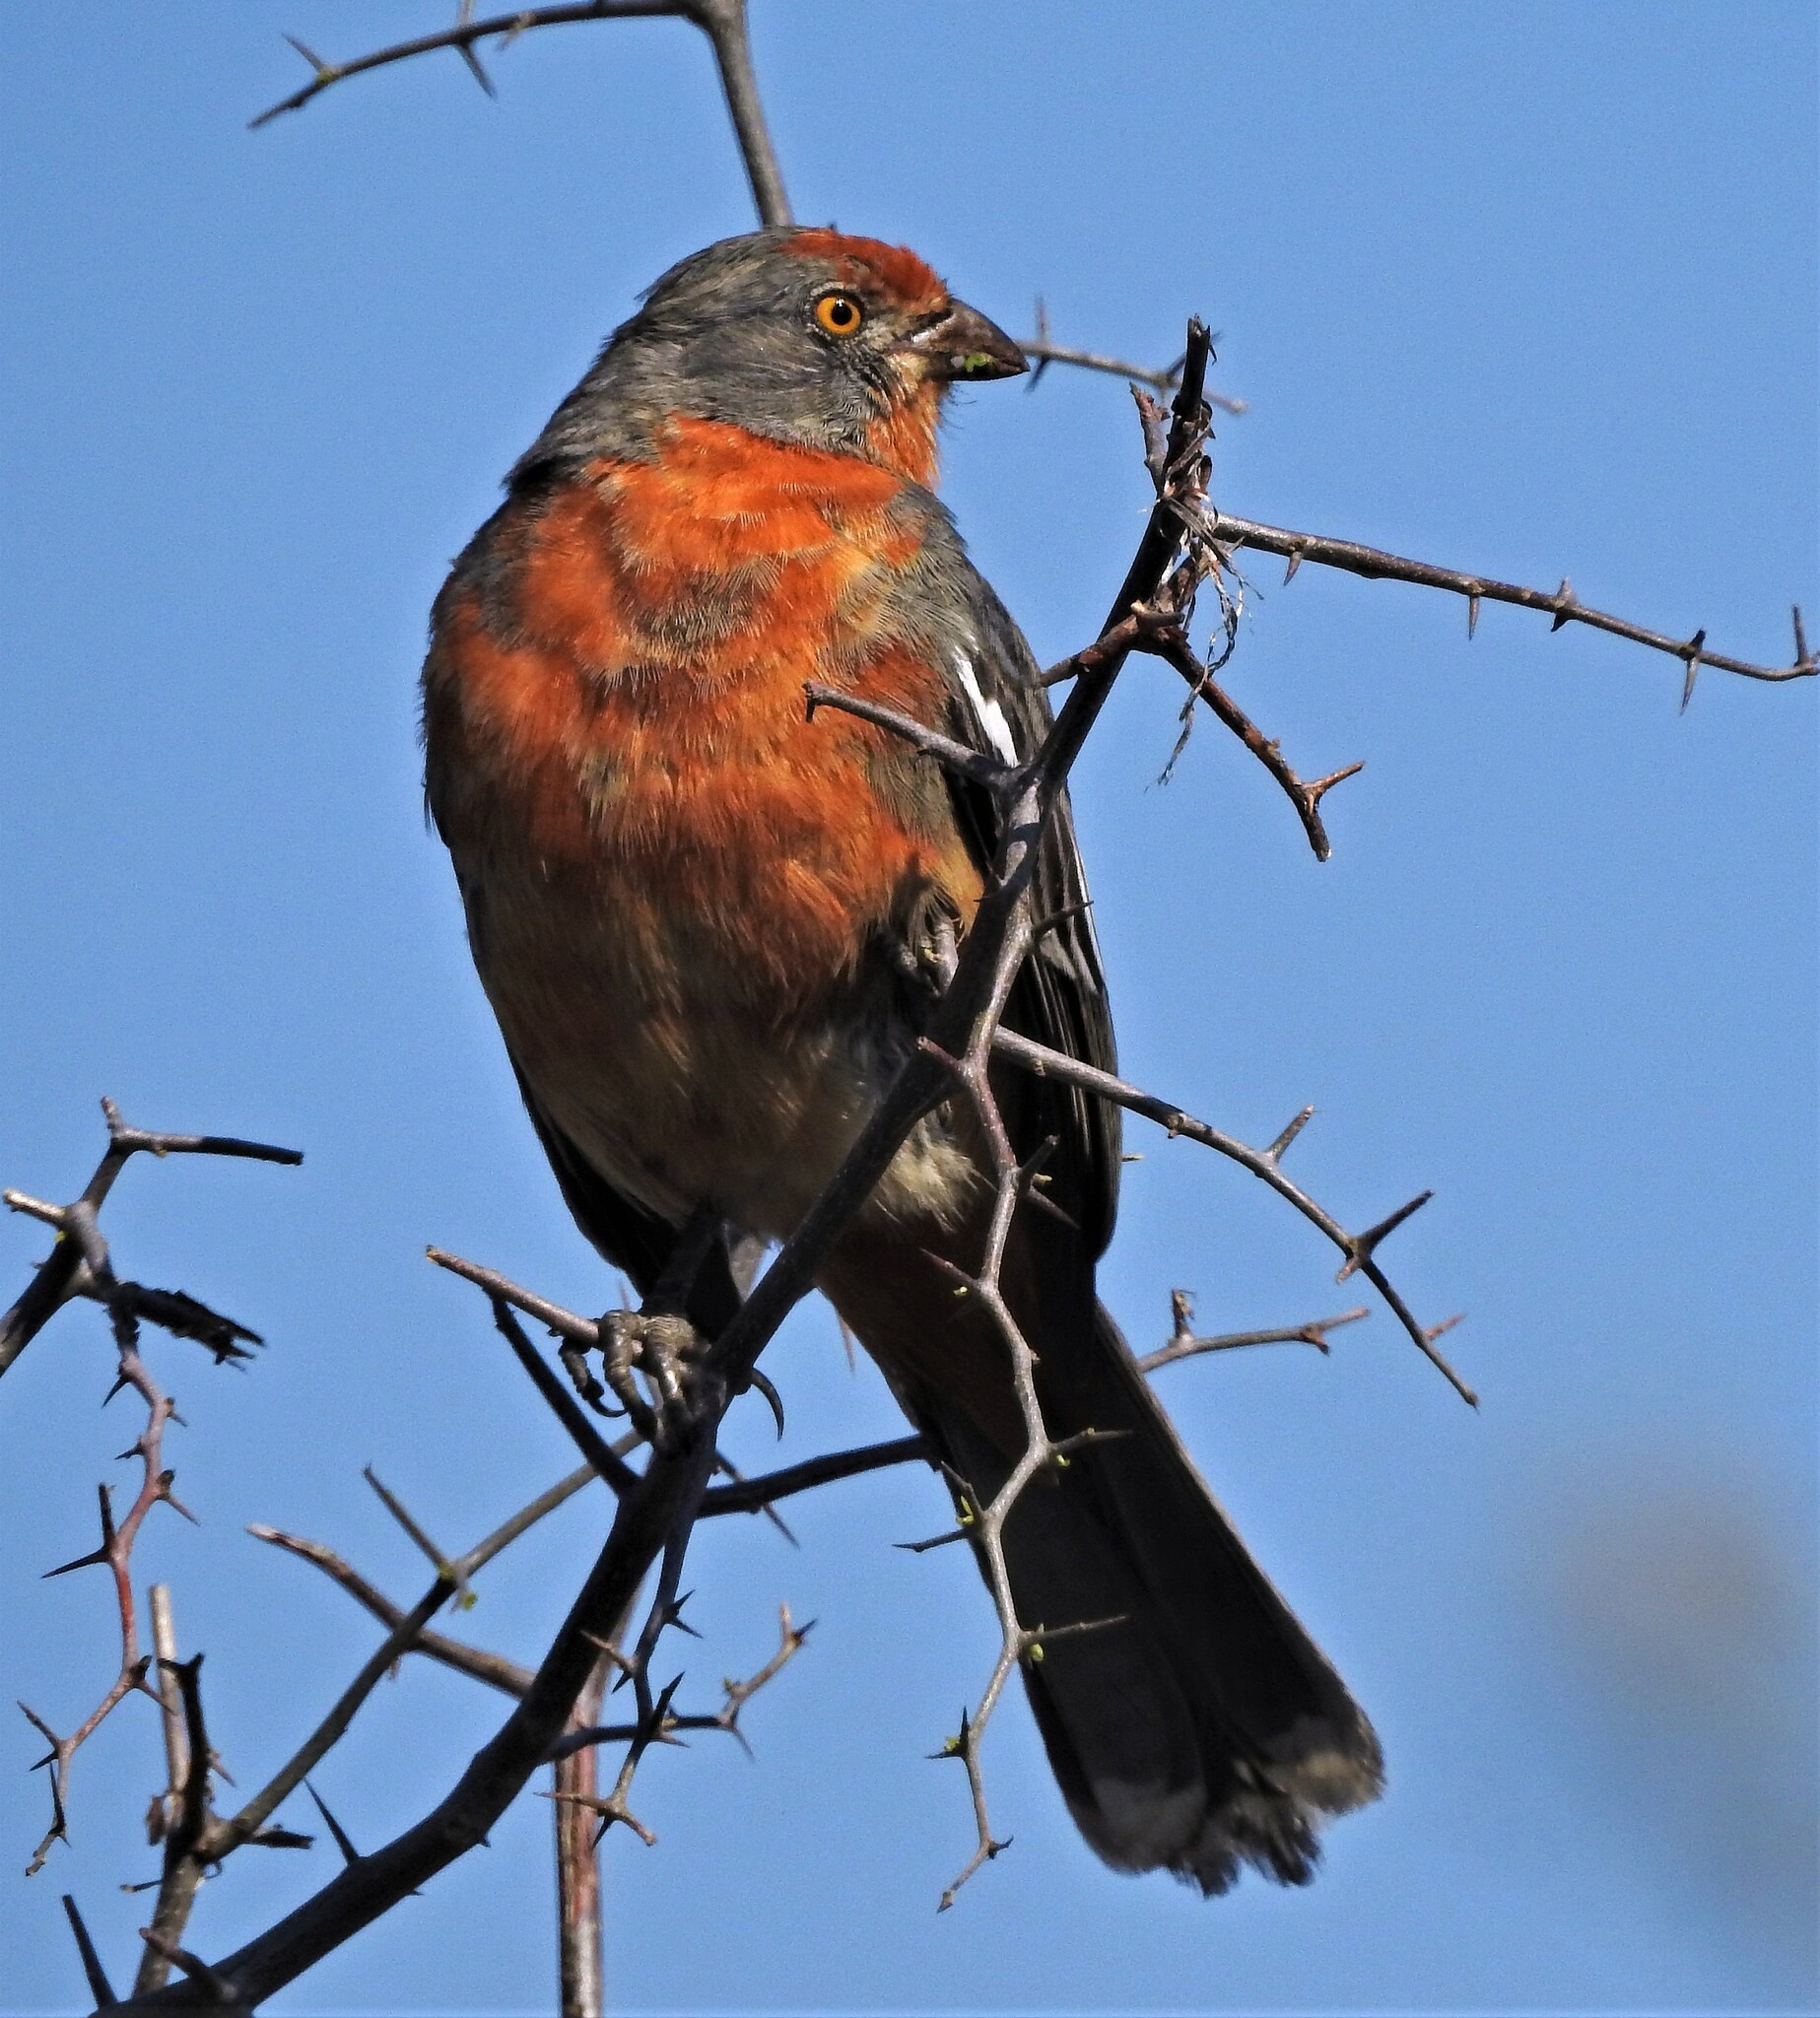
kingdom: Animalia
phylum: Chordata
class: Aves
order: Passeriformes
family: Cotingidae
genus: Phytotoma
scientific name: Phytotoma rutila
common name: White-tipped plantcutter
